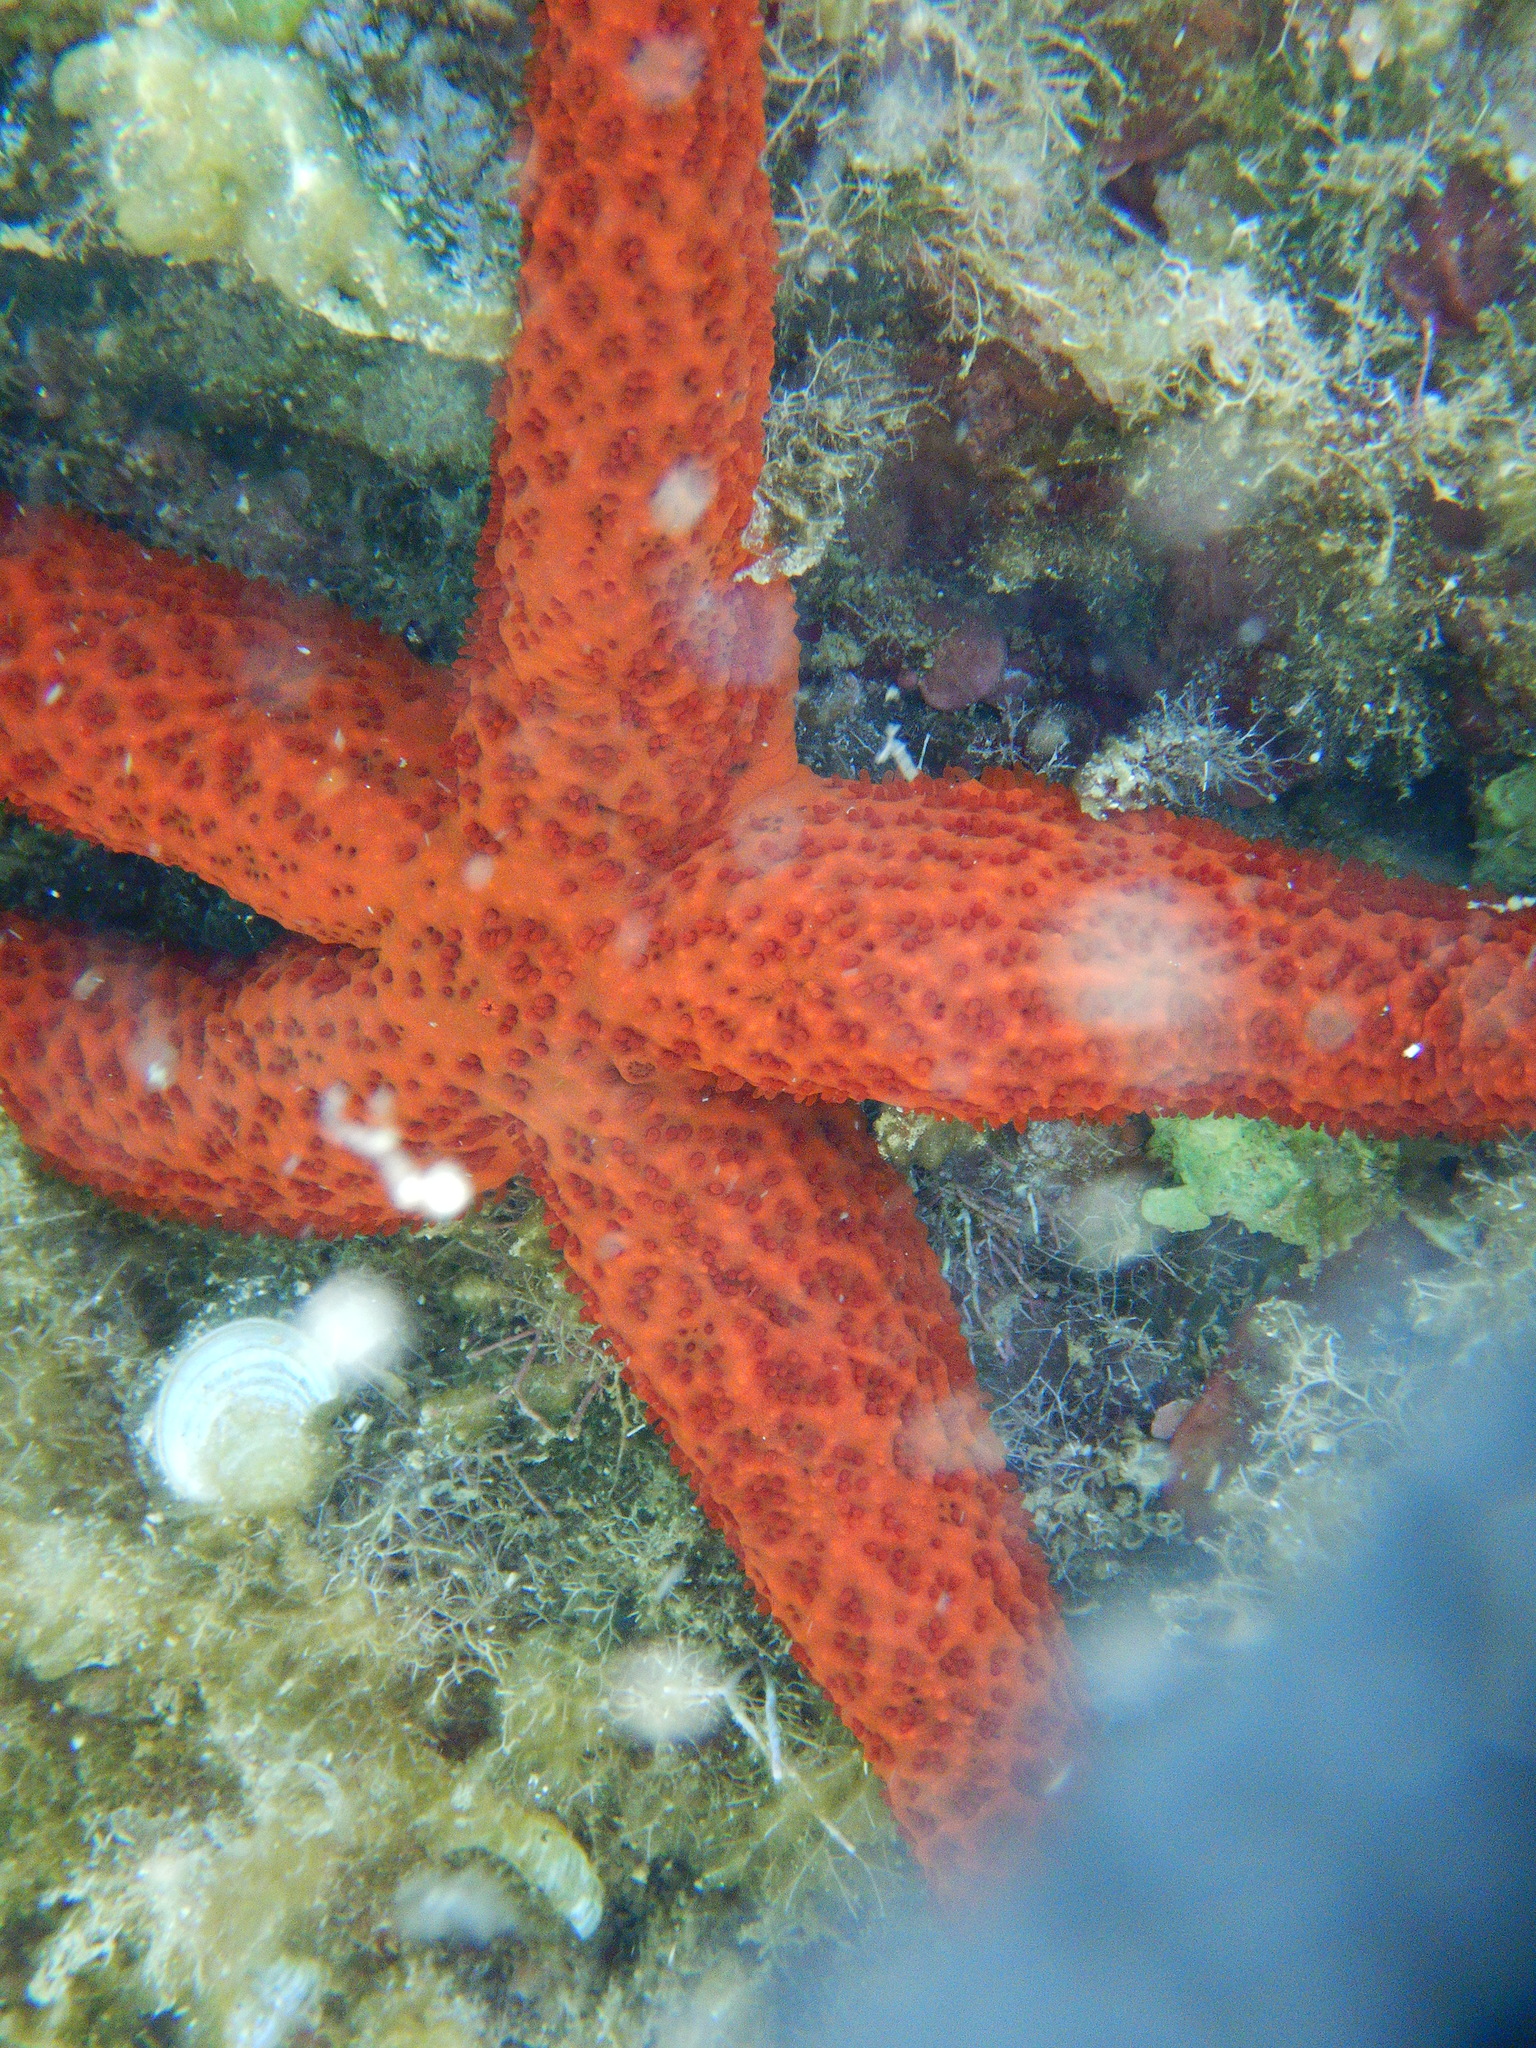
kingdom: Animalia
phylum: Echinodermata
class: Asteroidea
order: Spinulosida
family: Echinasteridae
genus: Echinaster
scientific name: Echinaster sepositus
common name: Red starfish
